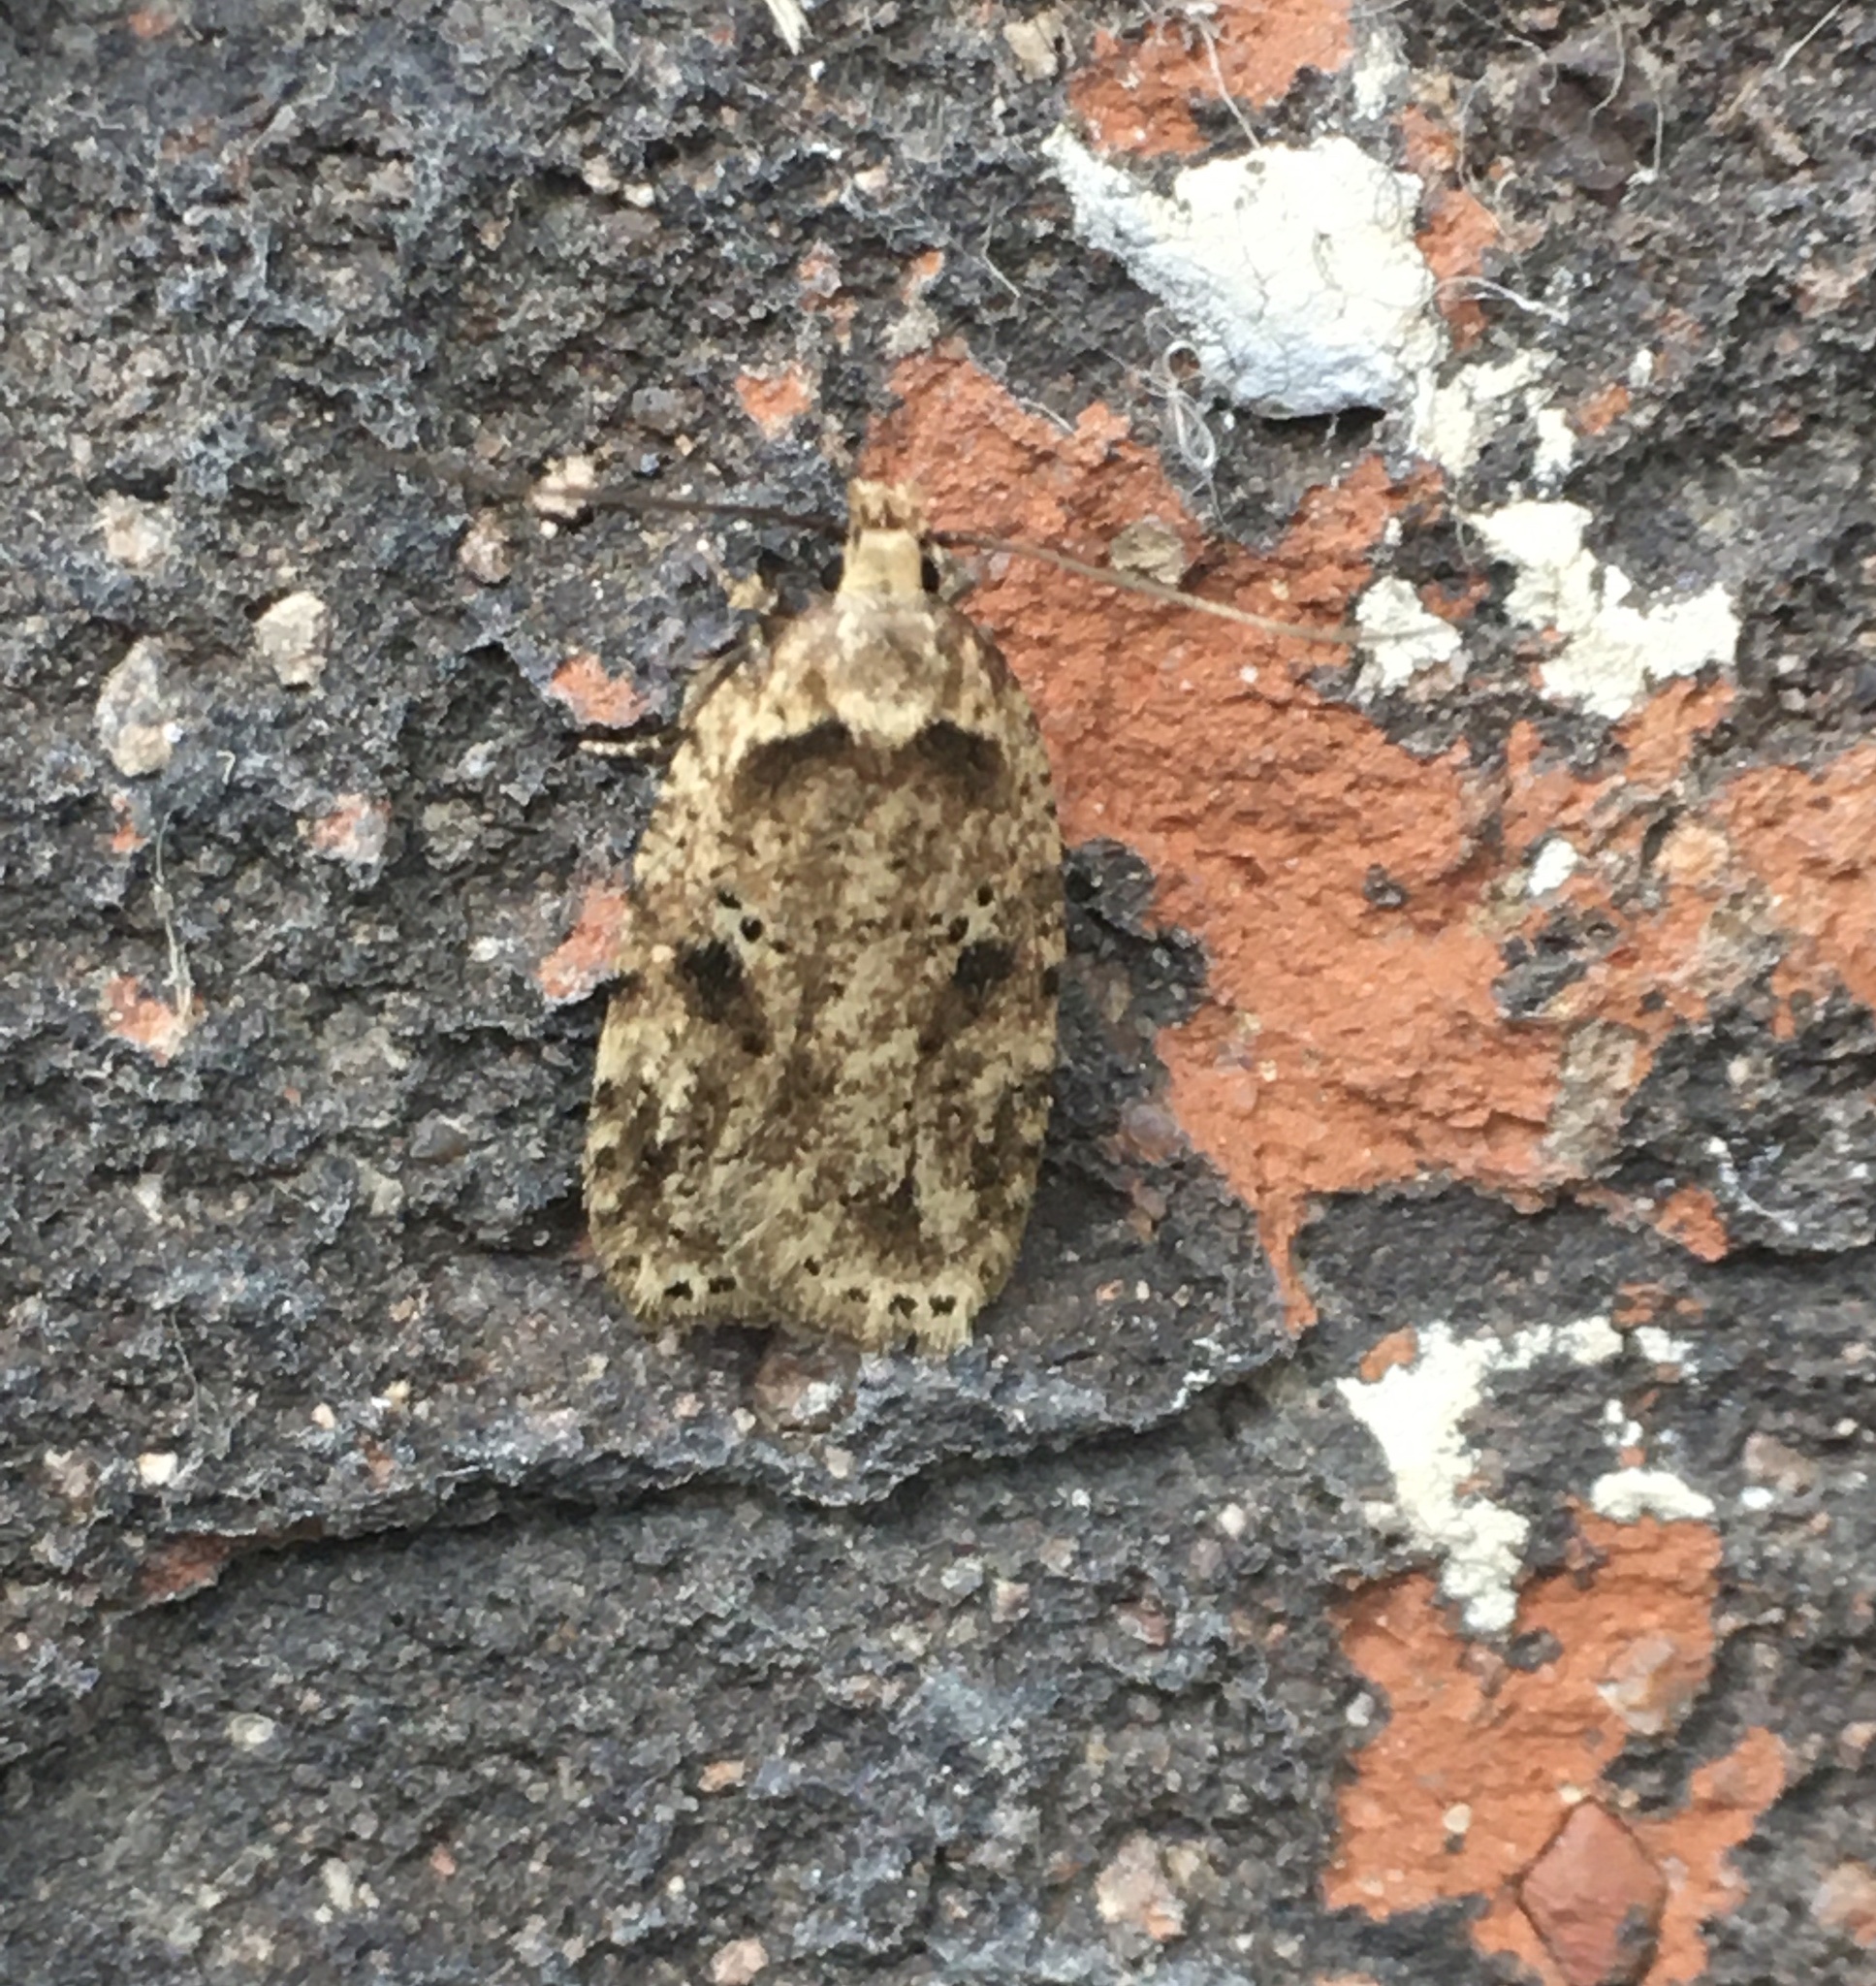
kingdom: Animalia
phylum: Arthropoda
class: Insecta
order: Lepidoptera
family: Depressariidae
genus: Agonopterix
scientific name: Agonopterix arenella
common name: Brindled flat-body
